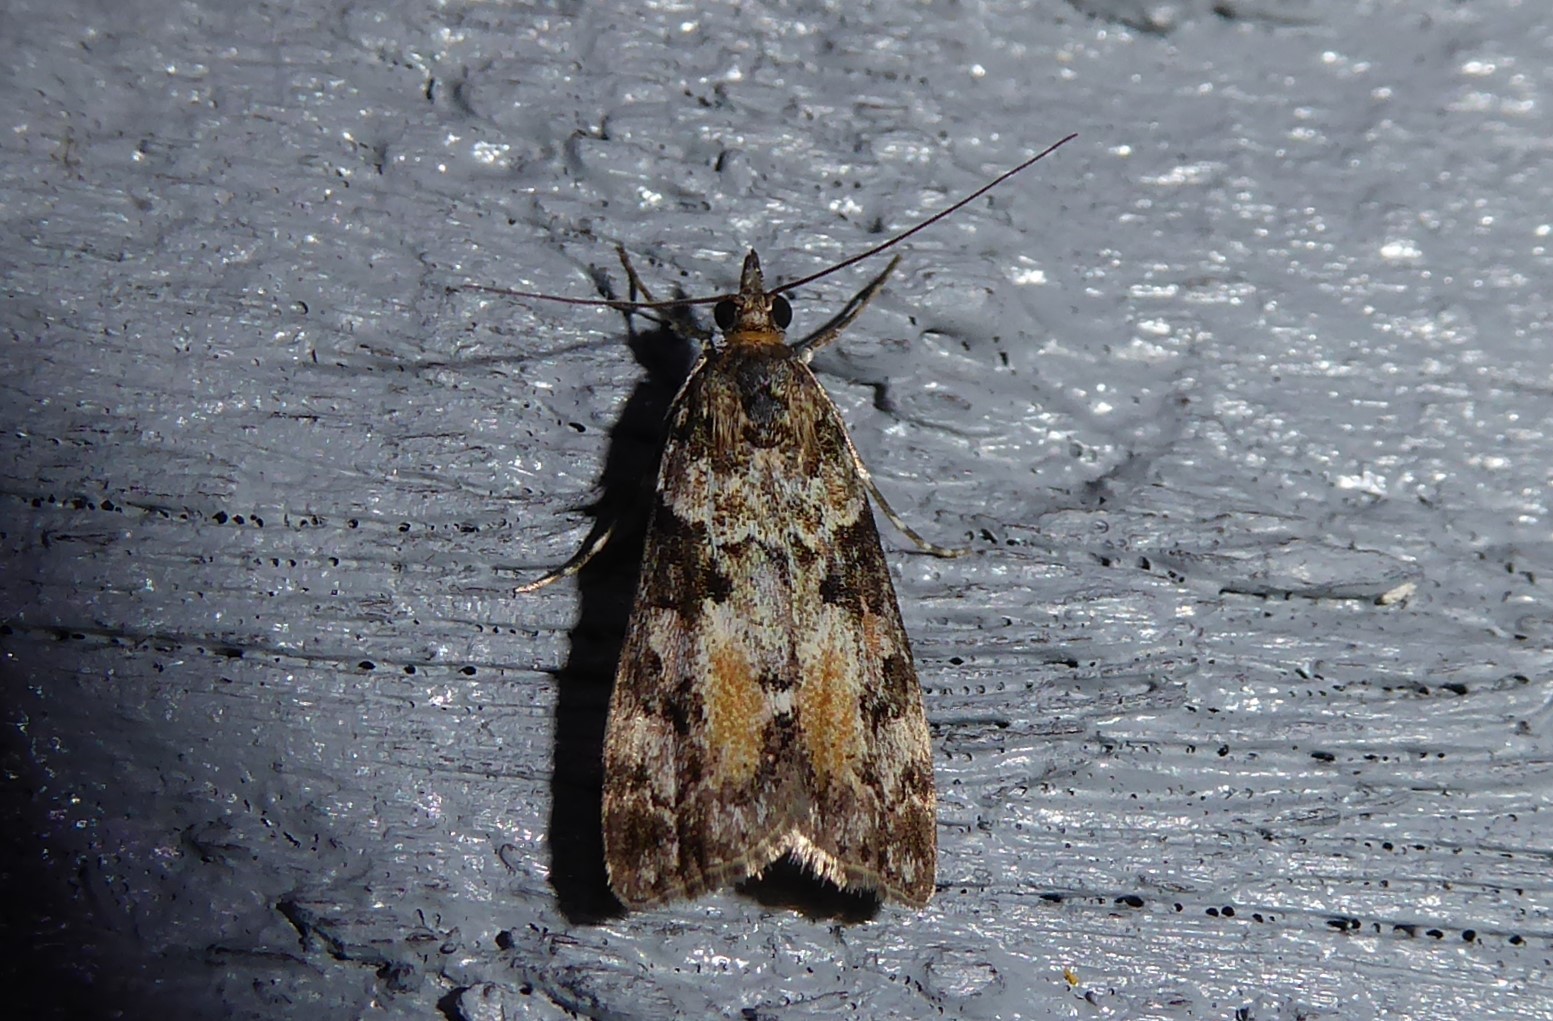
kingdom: Animalia
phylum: Arthropoda
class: Insecta
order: Lepidoptera
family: Crambidae
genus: Eudonia
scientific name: Eudonia submarginalis
